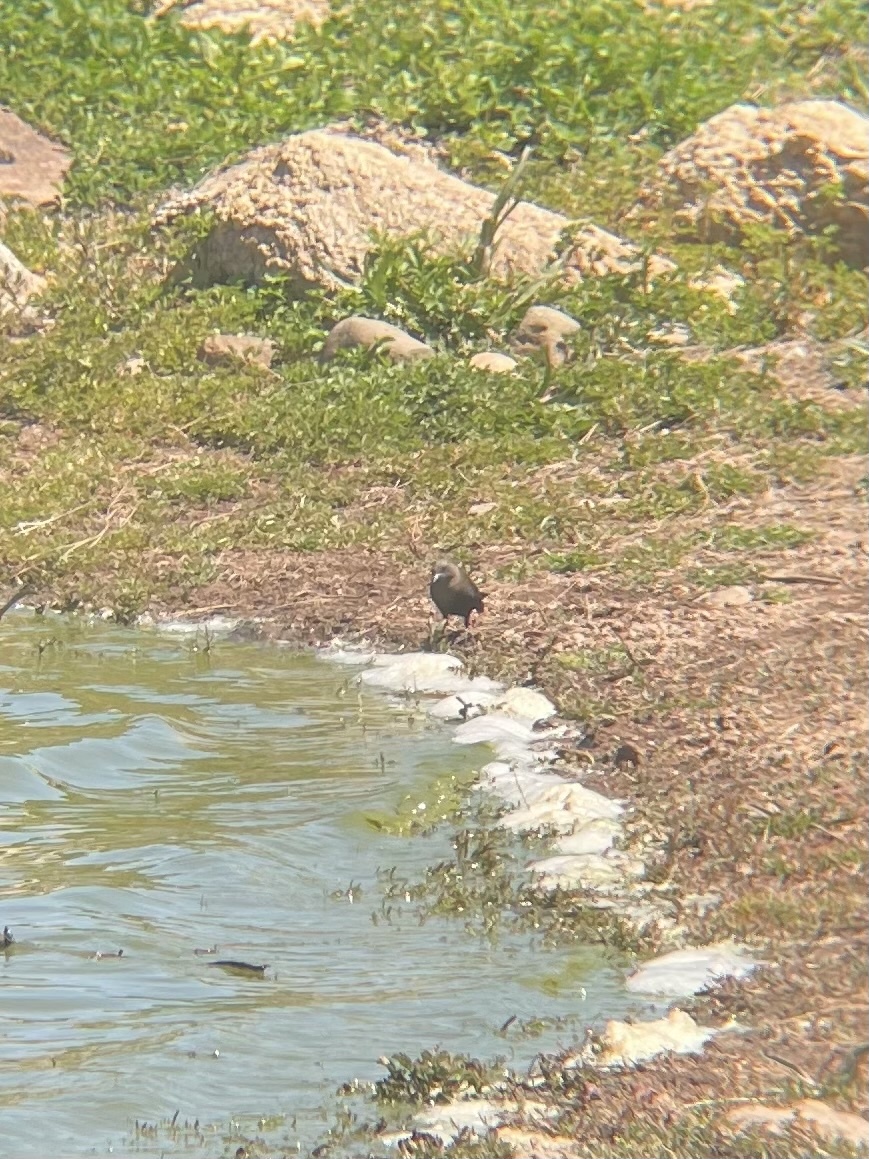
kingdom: Animalia
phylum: Chordata
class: Aves
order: Passeriformes
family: Icteridae
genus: Euphagus
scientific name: Euphagus cyanocephalus
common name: Brewer's blackbird
